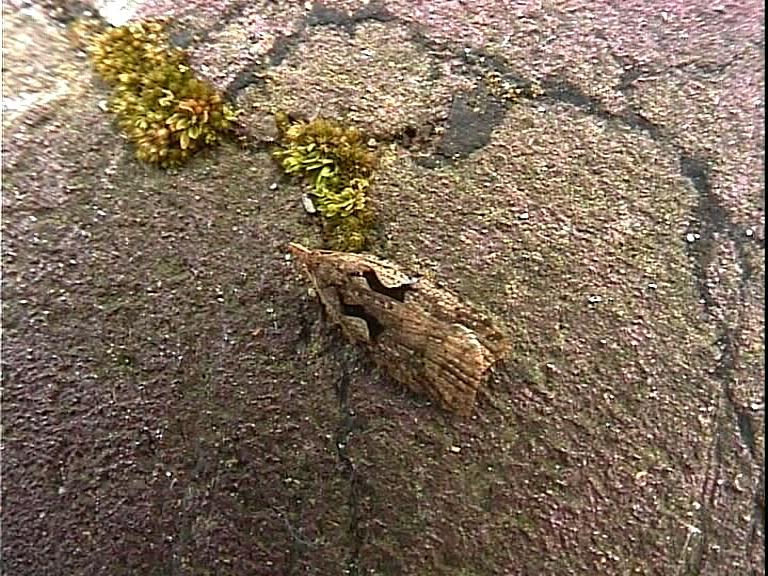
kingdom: Animalia
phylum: Arthropoda
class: Insecta
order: Lepidoptera
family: Tortricidae
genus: Cnephasia
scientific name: Cnephasia jactatana
